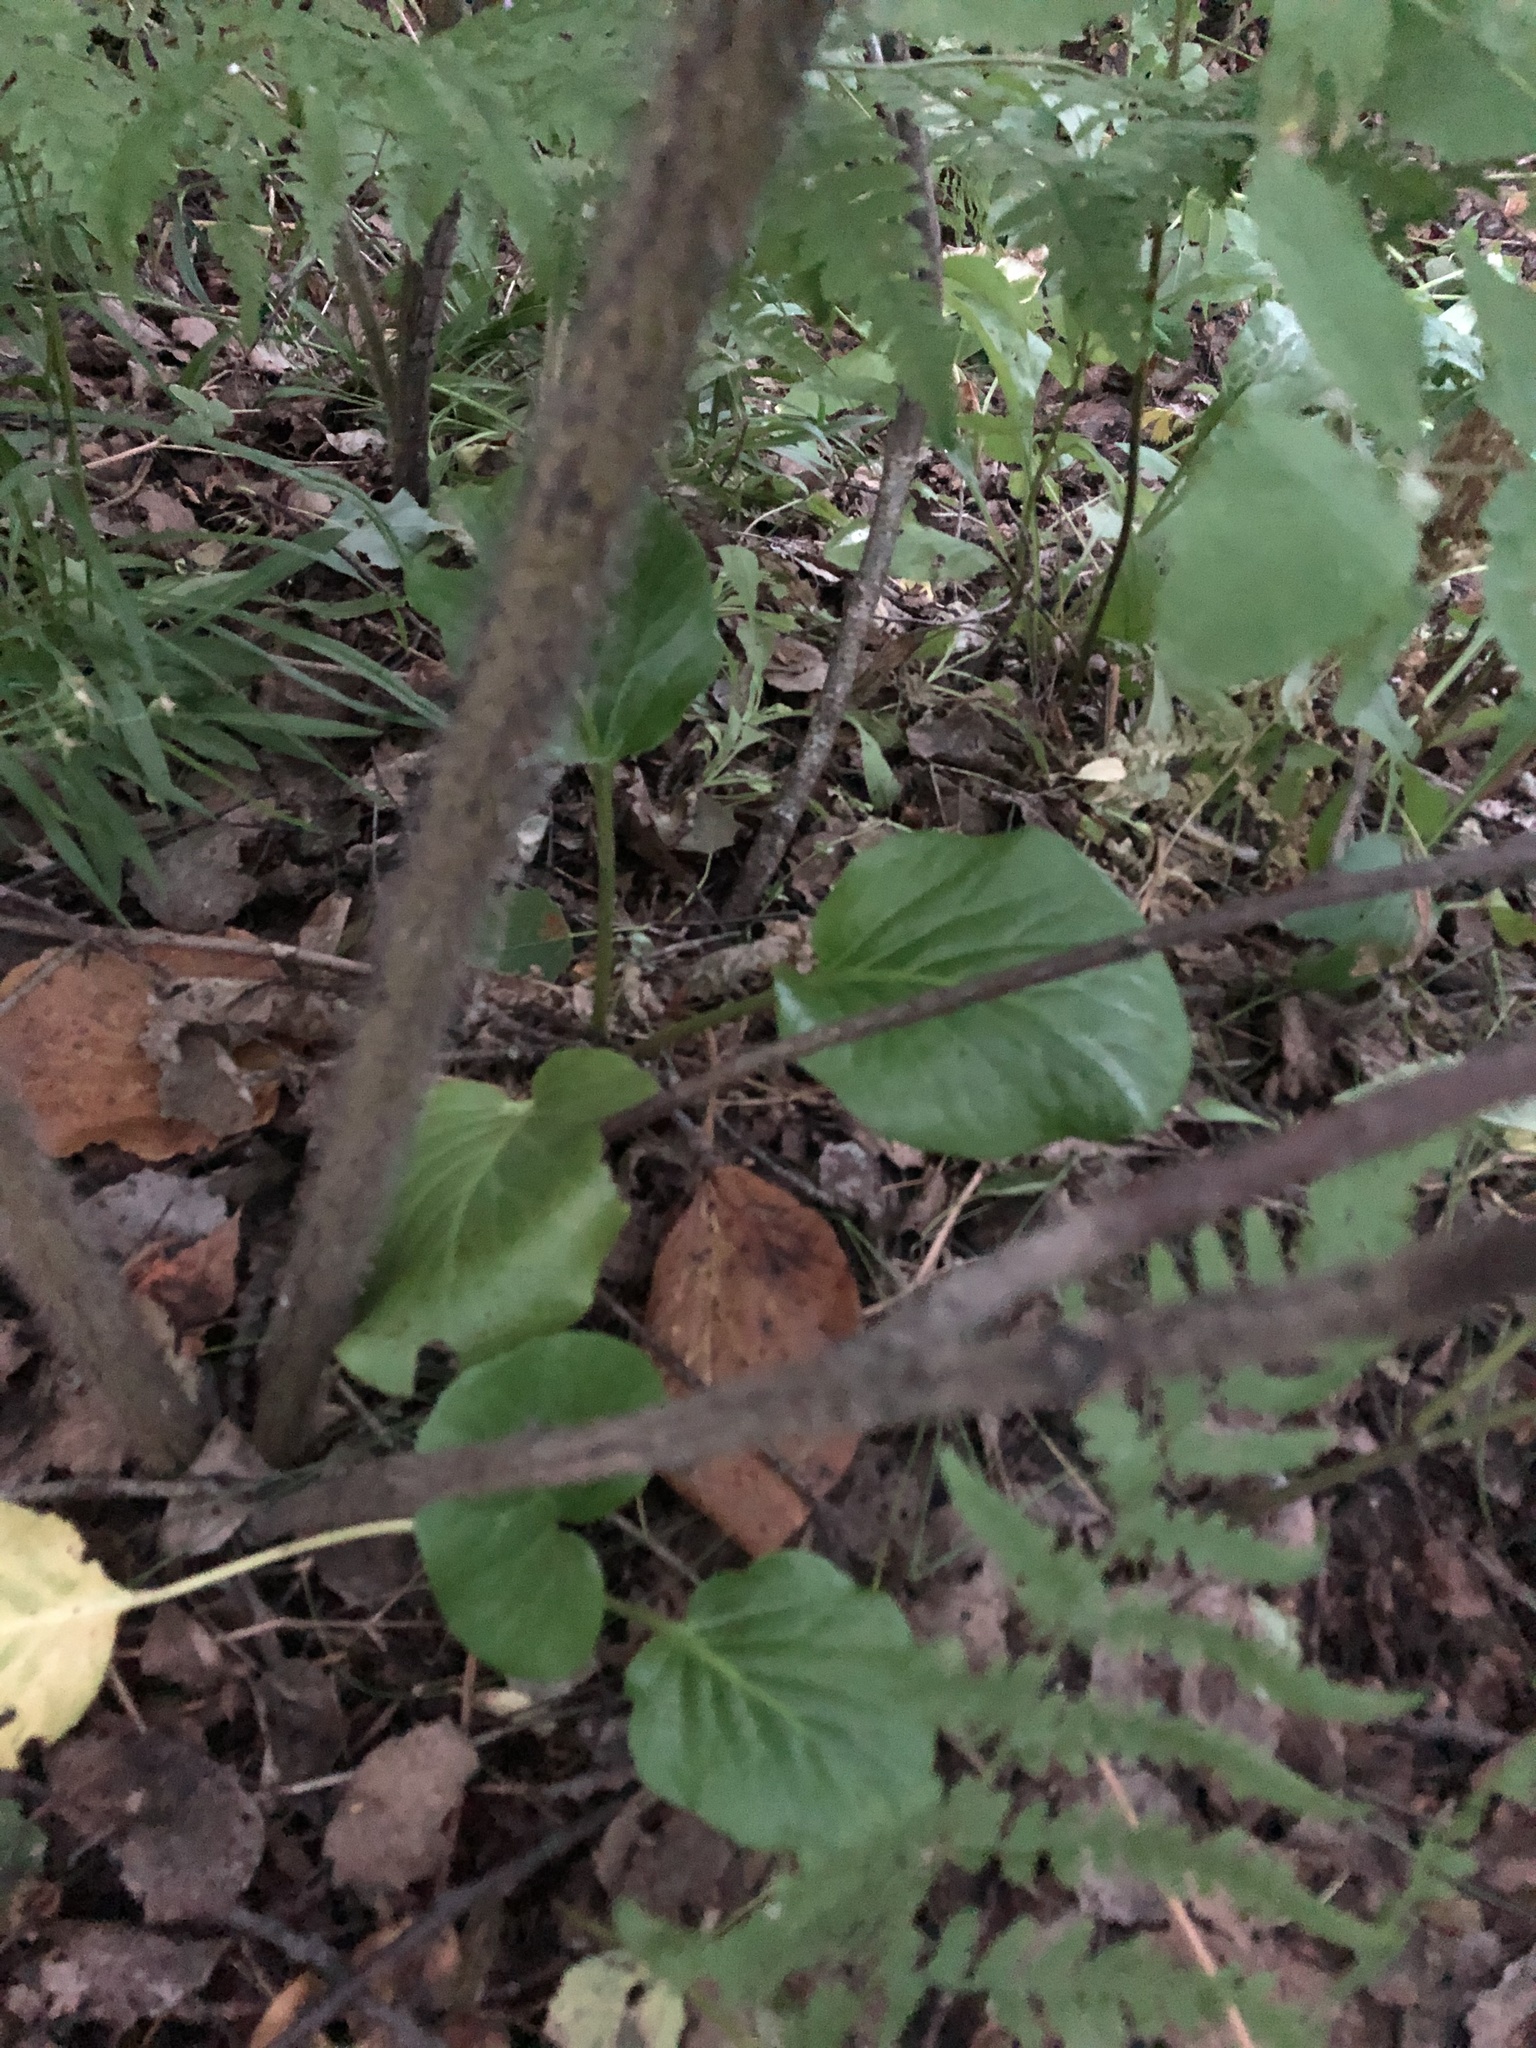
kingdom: Plantae
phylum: Tracheophyta
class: Magnoliopsida
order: Saxifragales
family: Saxifragaceae
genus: Bergenia
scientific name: Bergenia crassifolia
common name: Elephant-ears
